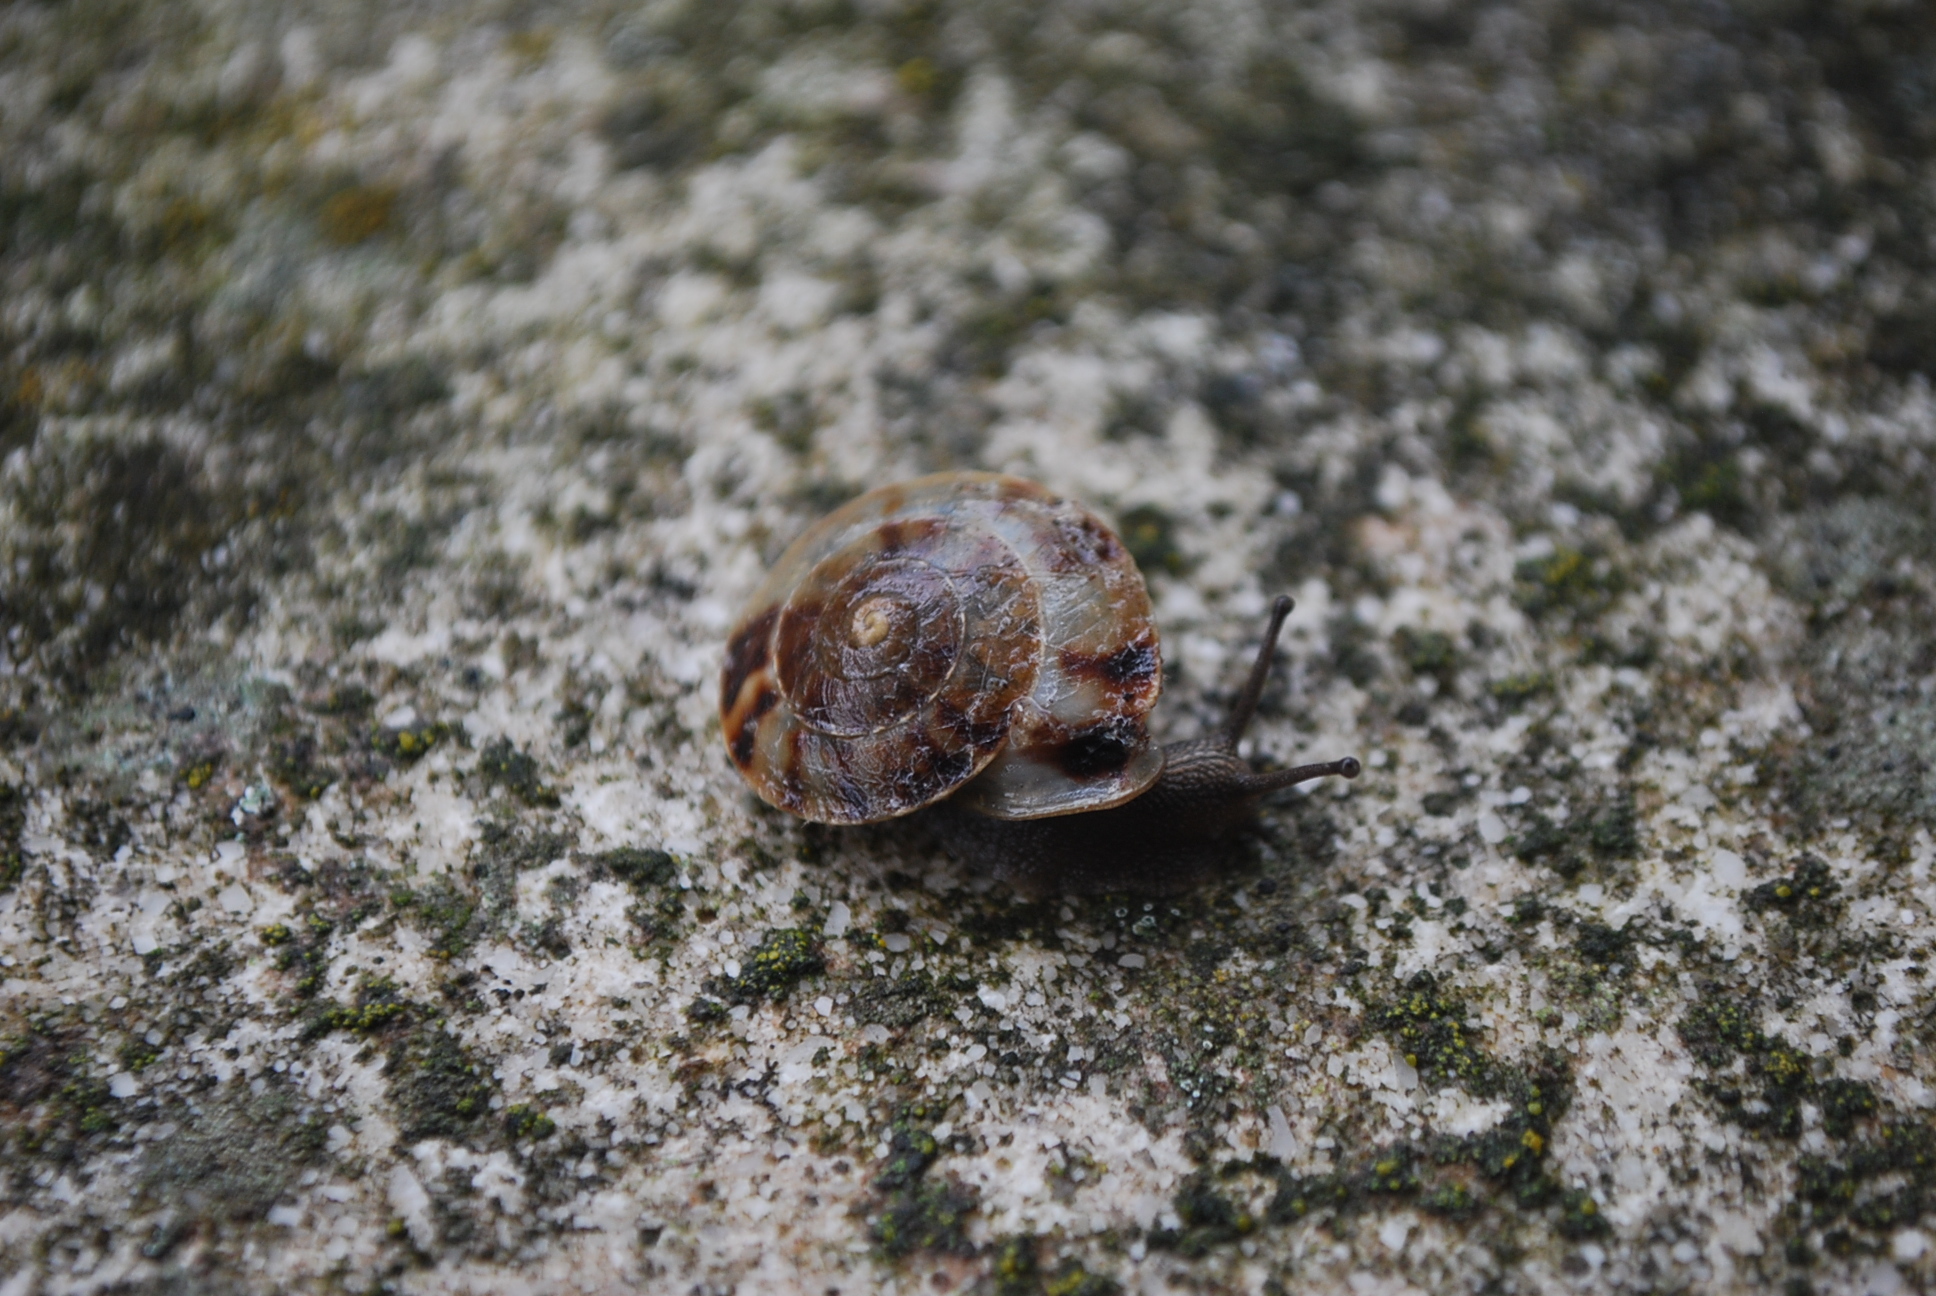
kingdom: Animalia
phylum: Mollusca
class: Gastropoda
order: Stylommatophora
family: Helicidae
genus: Helicigona
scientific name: Helicigona lapicida
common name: Lapidary snail
